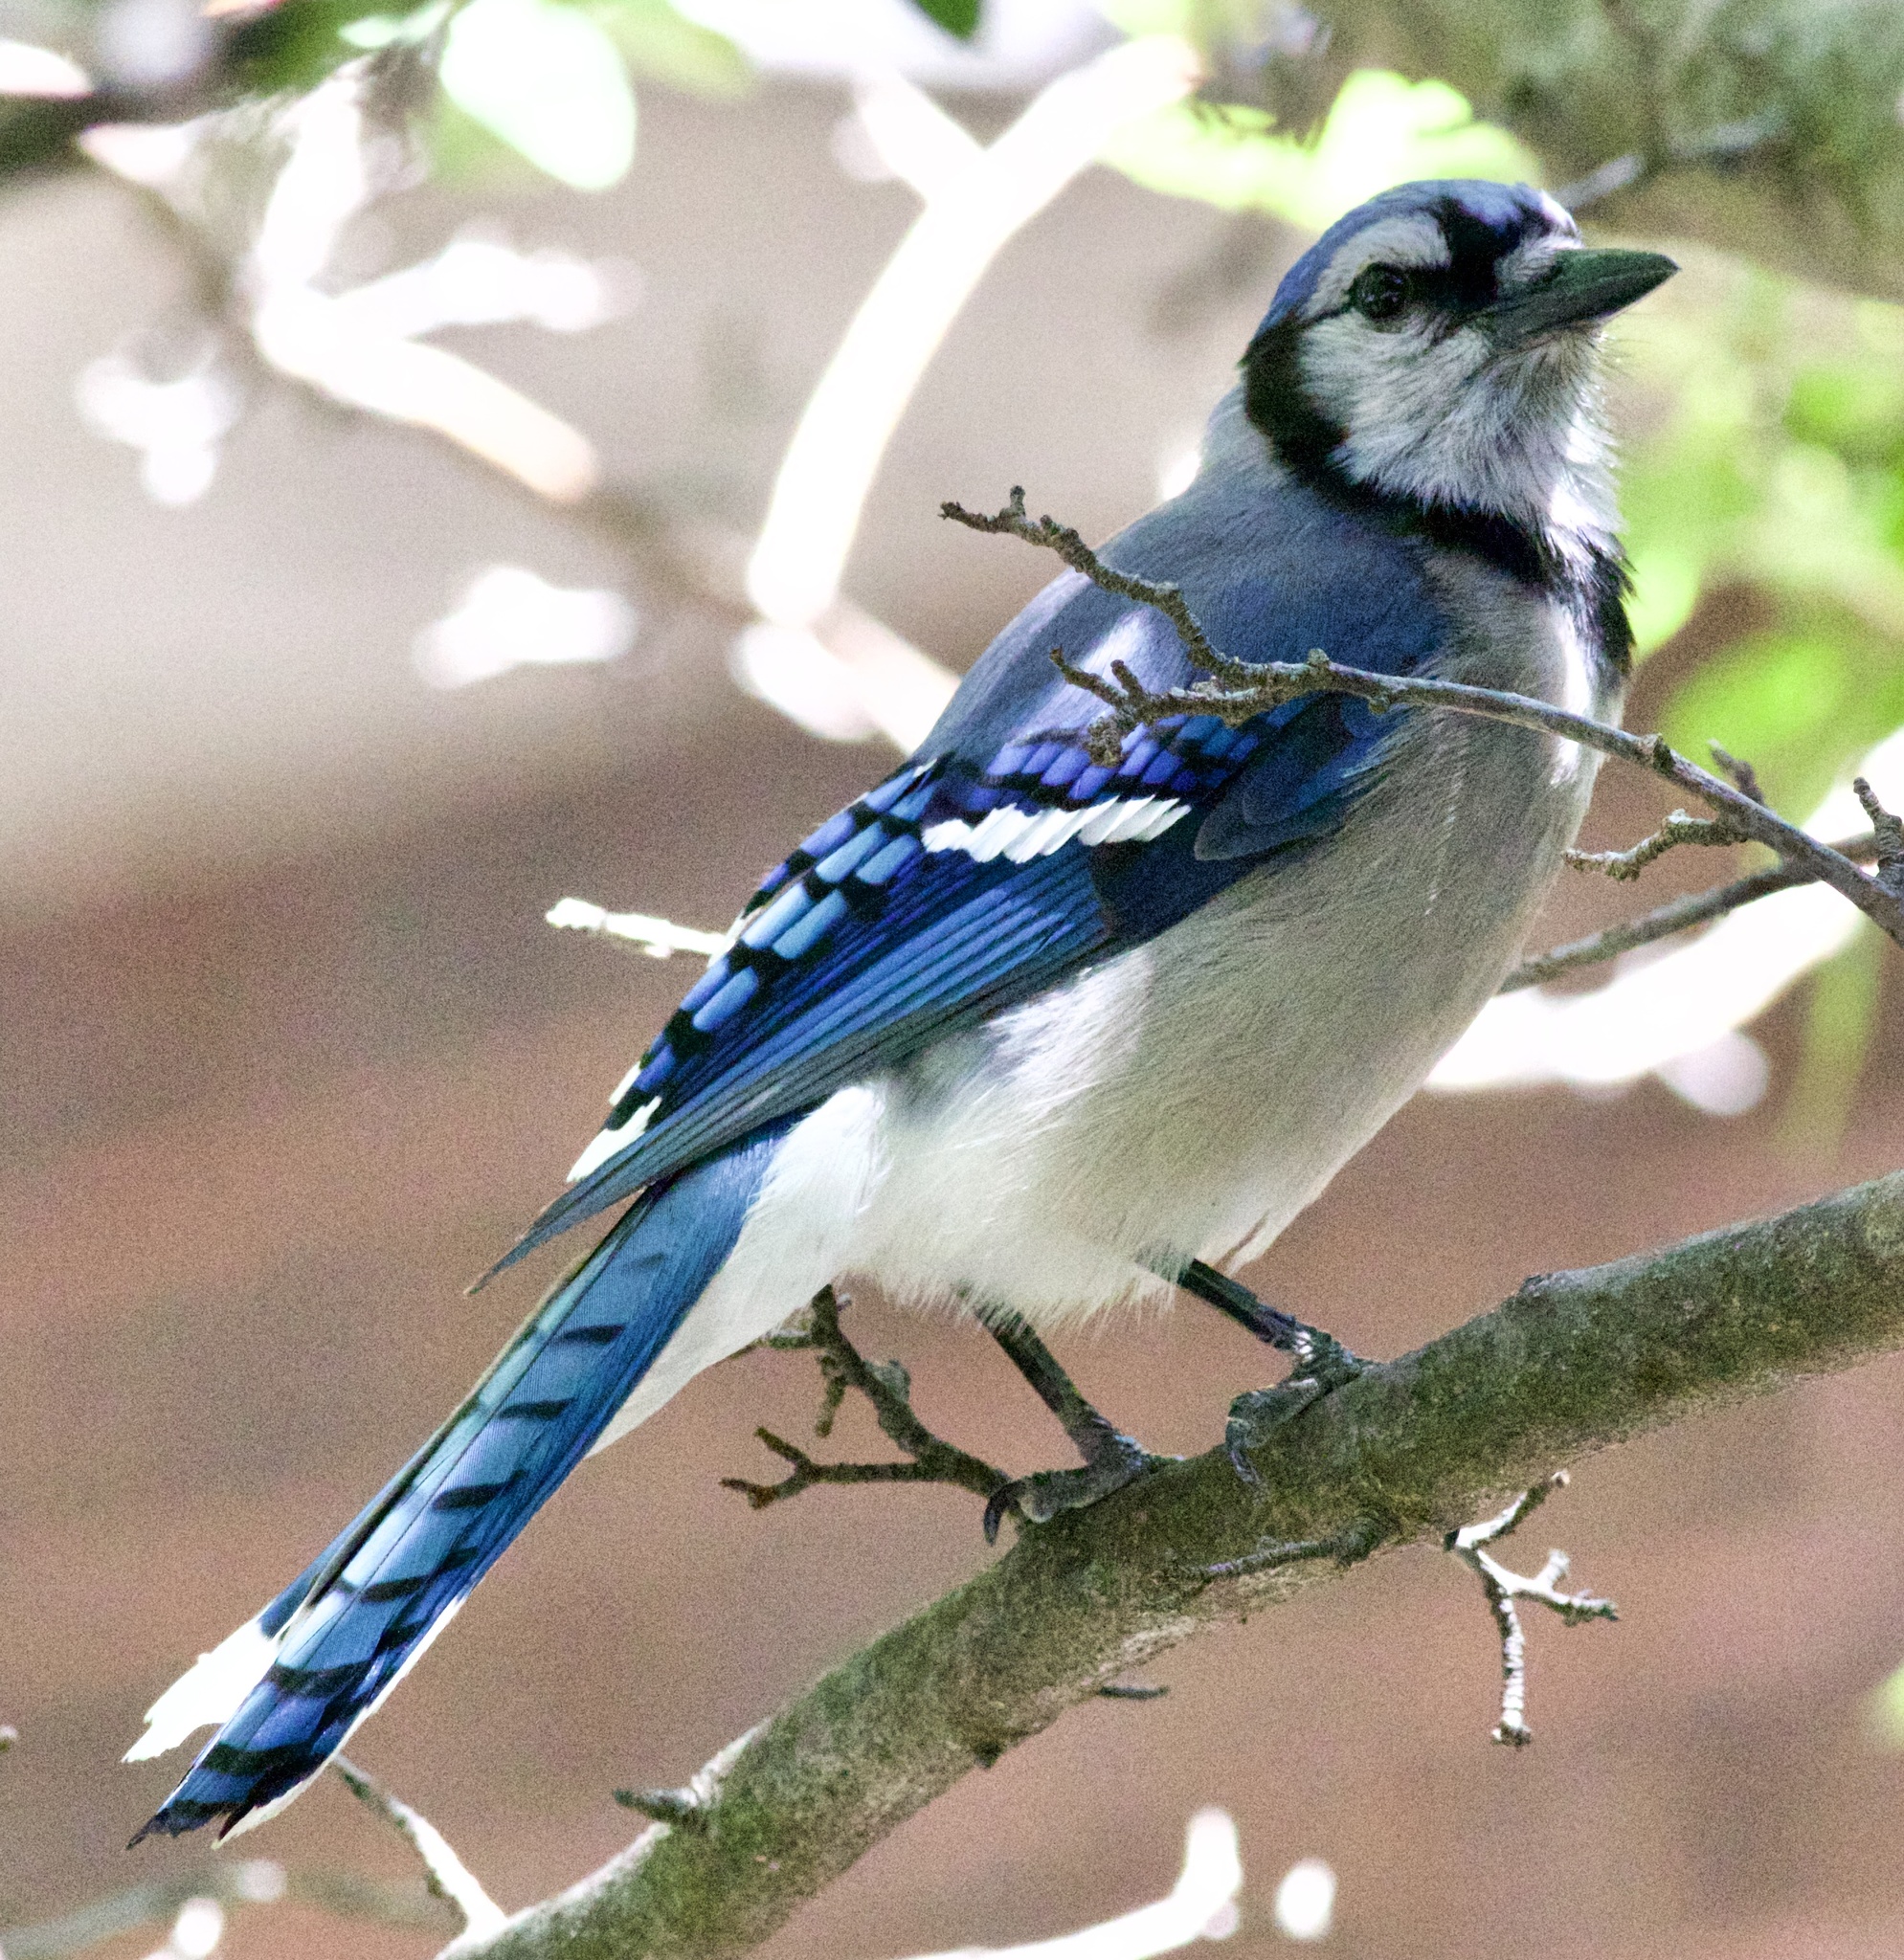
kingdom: Animalia
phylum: Chordata
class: Aves
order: Passeriformes
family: Corvidae
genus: Cyanocitta
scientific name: Cyanocitta cristata
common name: Blue jay
